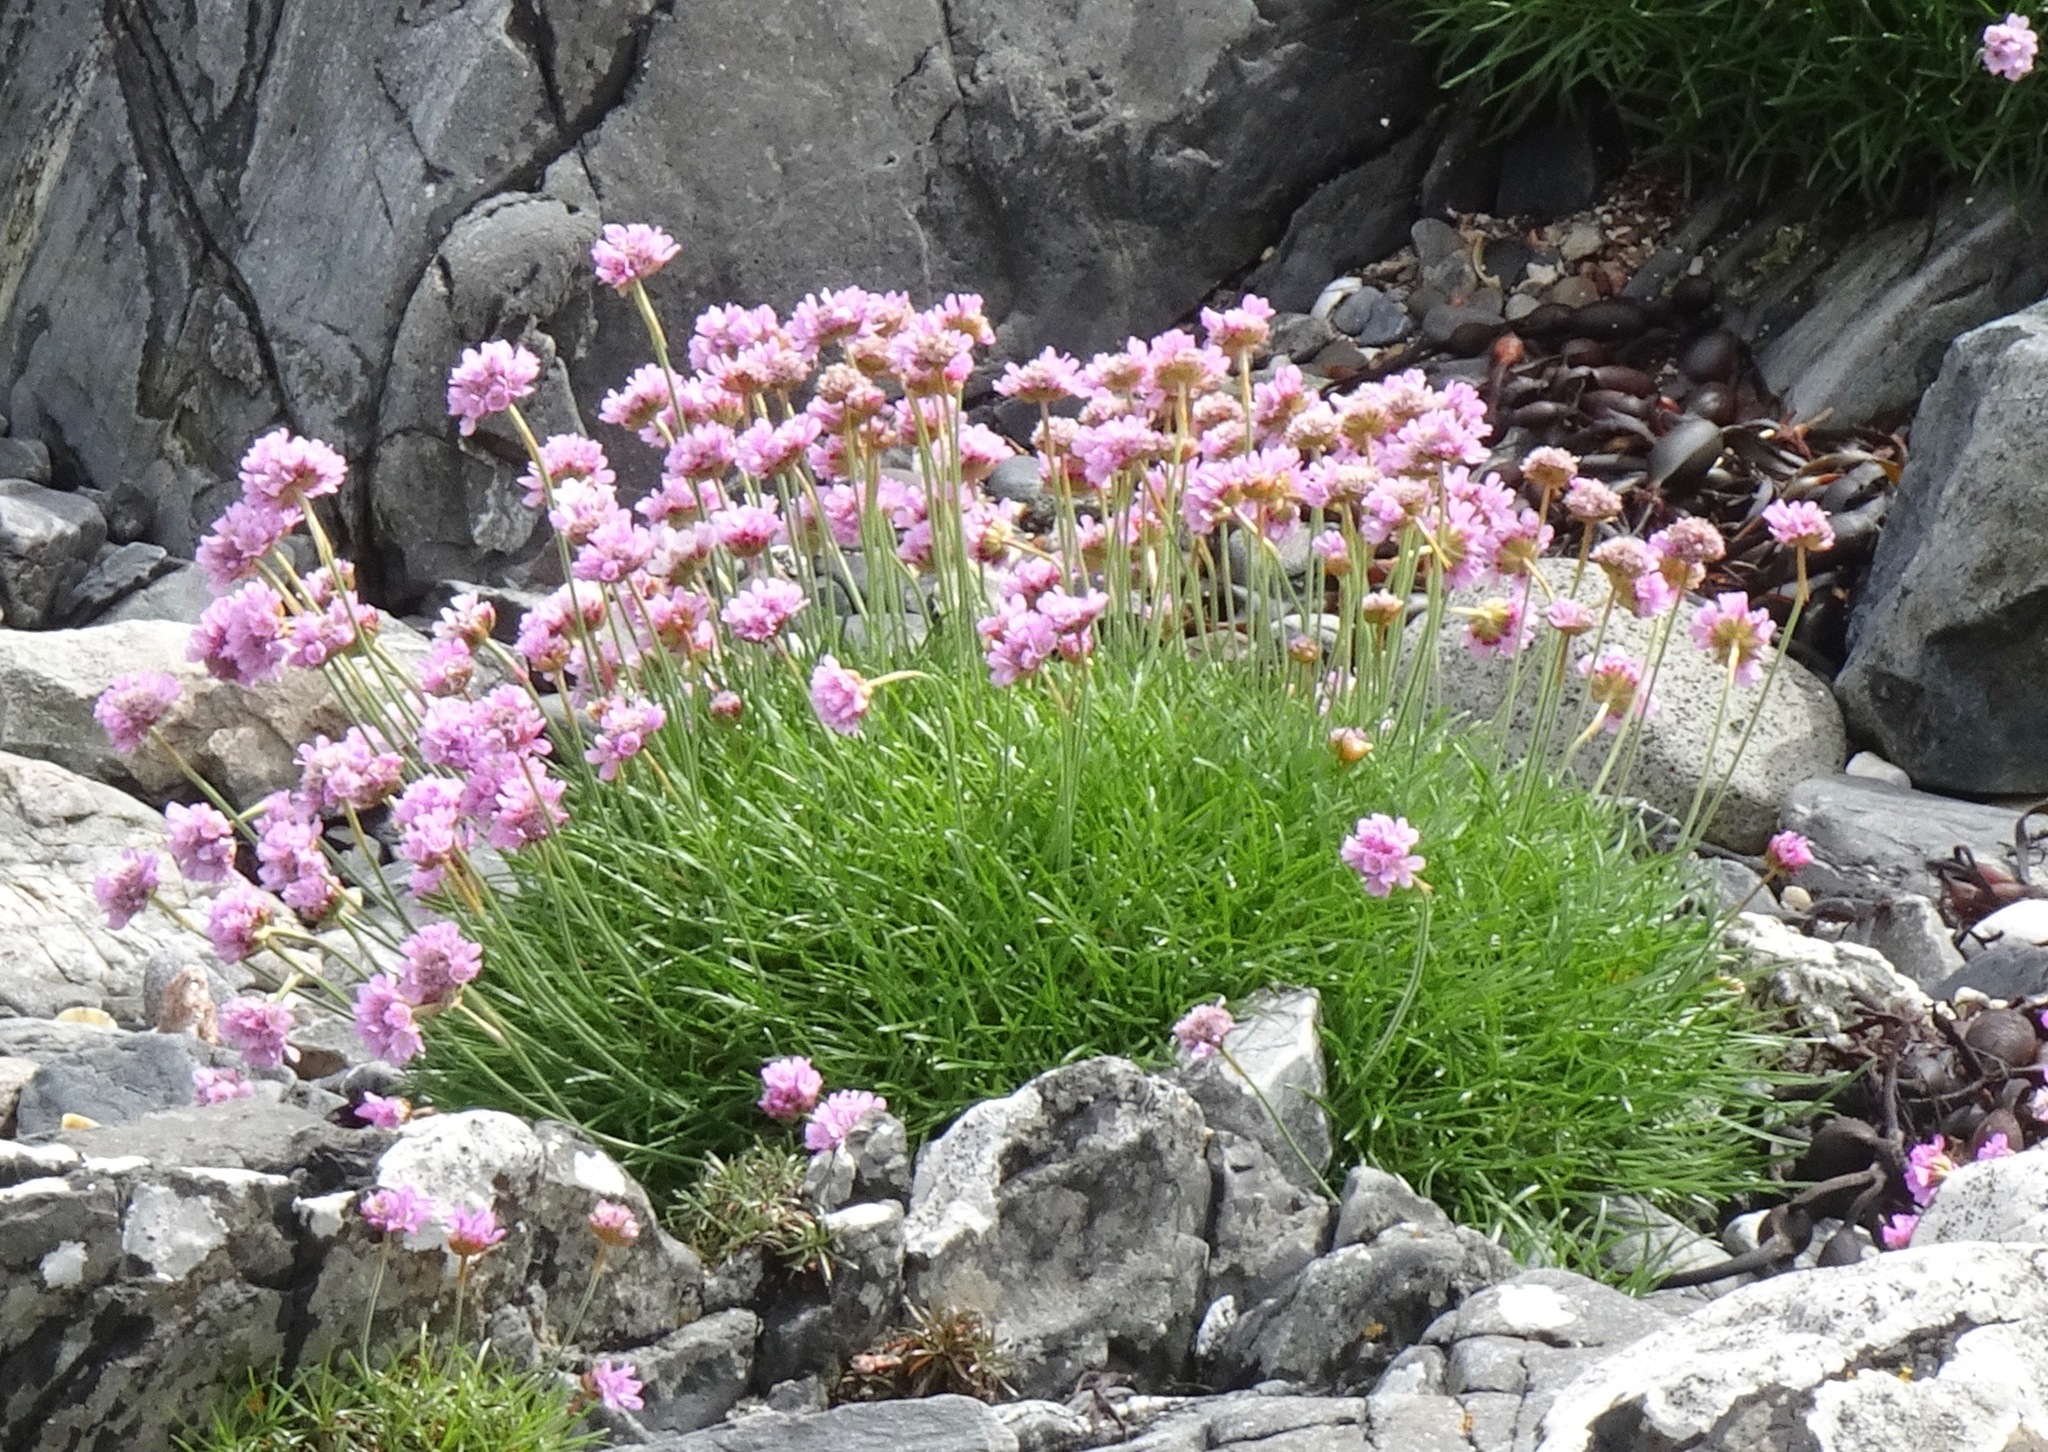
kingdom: Plantae
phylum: Tracheophyta
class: Magnoliopsida
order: Caryophyllales
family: Plumbaginaceae
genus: Armeria
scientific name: Armeria maritima
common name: Thrift
